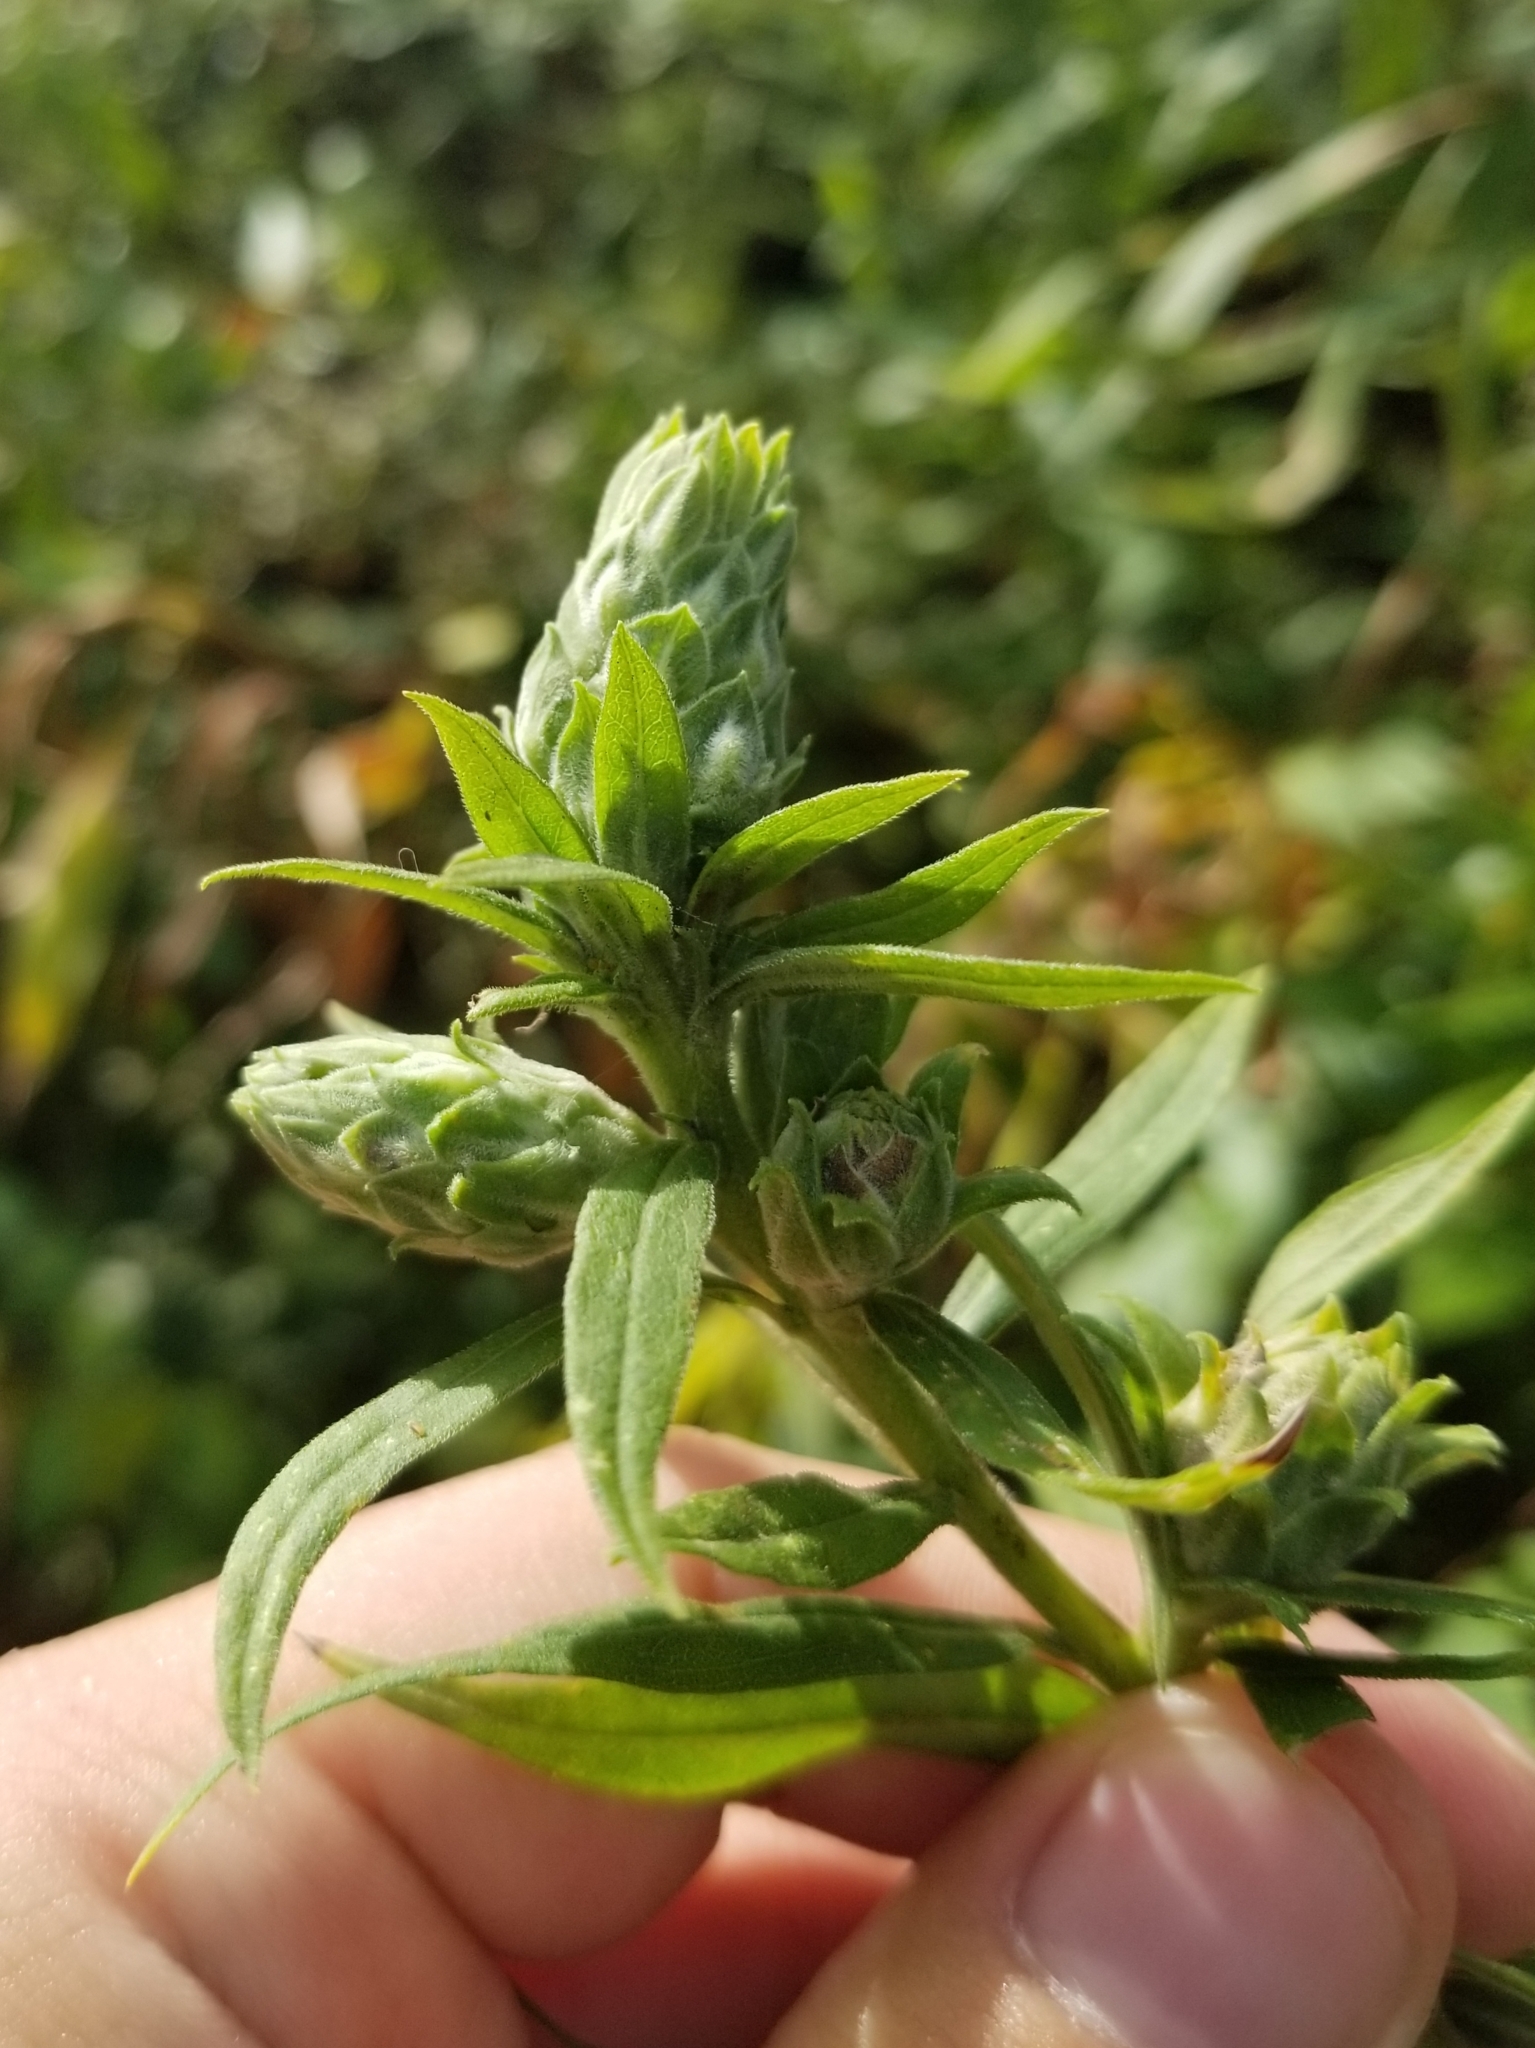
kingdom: Animalia
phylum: Arthropoda
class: Insecta
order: Diptera
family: Tephritidae
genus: Procecidochares
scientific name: Procecidochares atra
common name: Goldenrod brussels sprout gall fly
